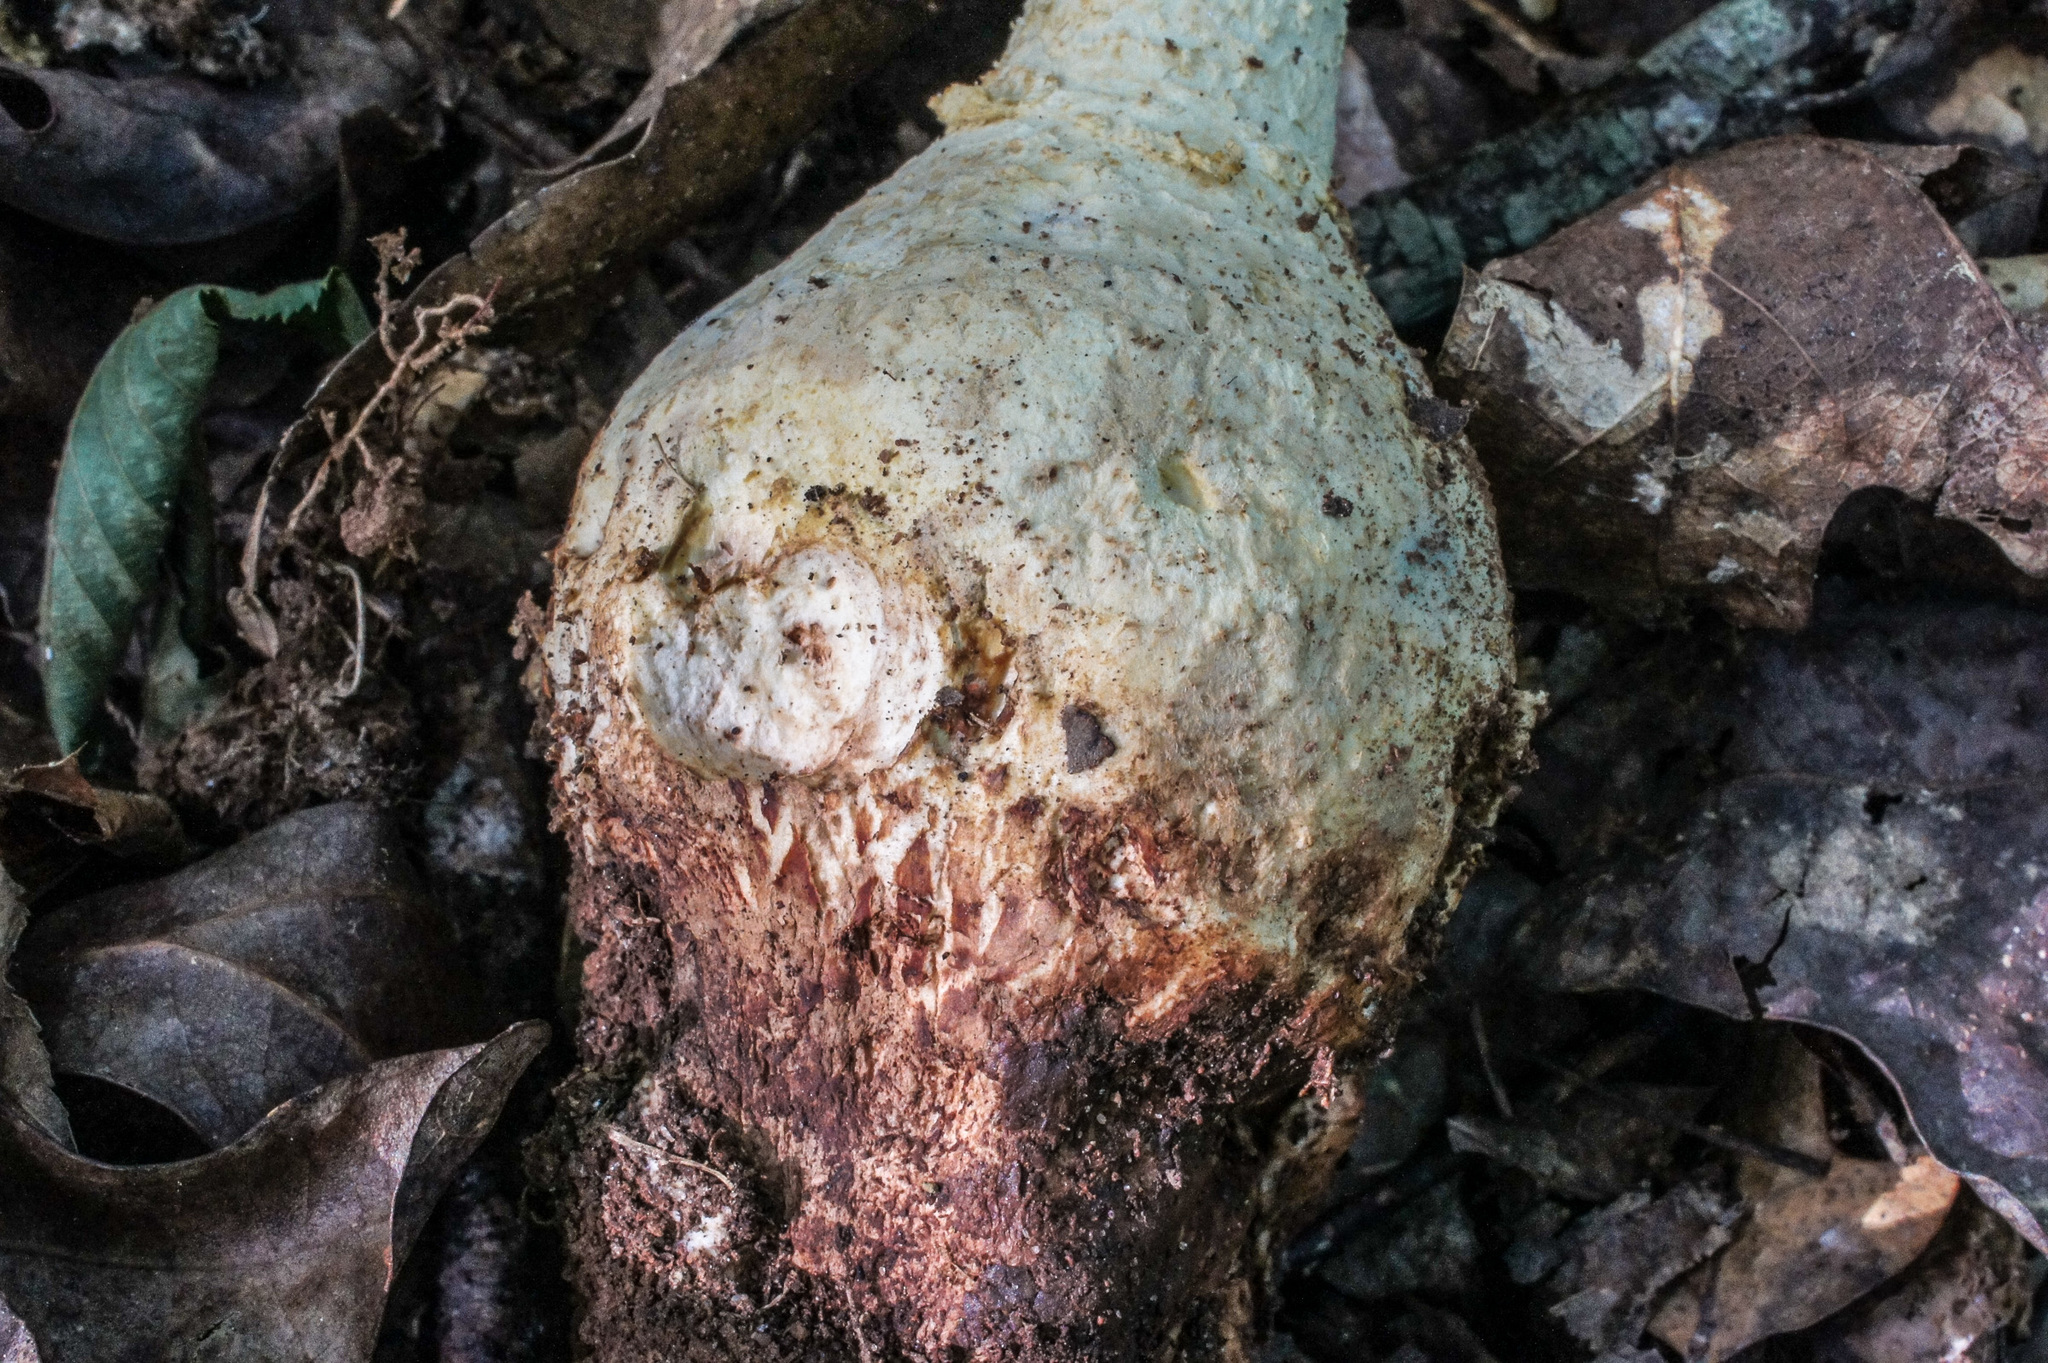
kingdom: Fungi
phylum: Basidiomycota
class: Agaricomycetes
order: Agaricales
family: Amanitaceae
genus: Amanita
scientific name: Amanita ravenelii
